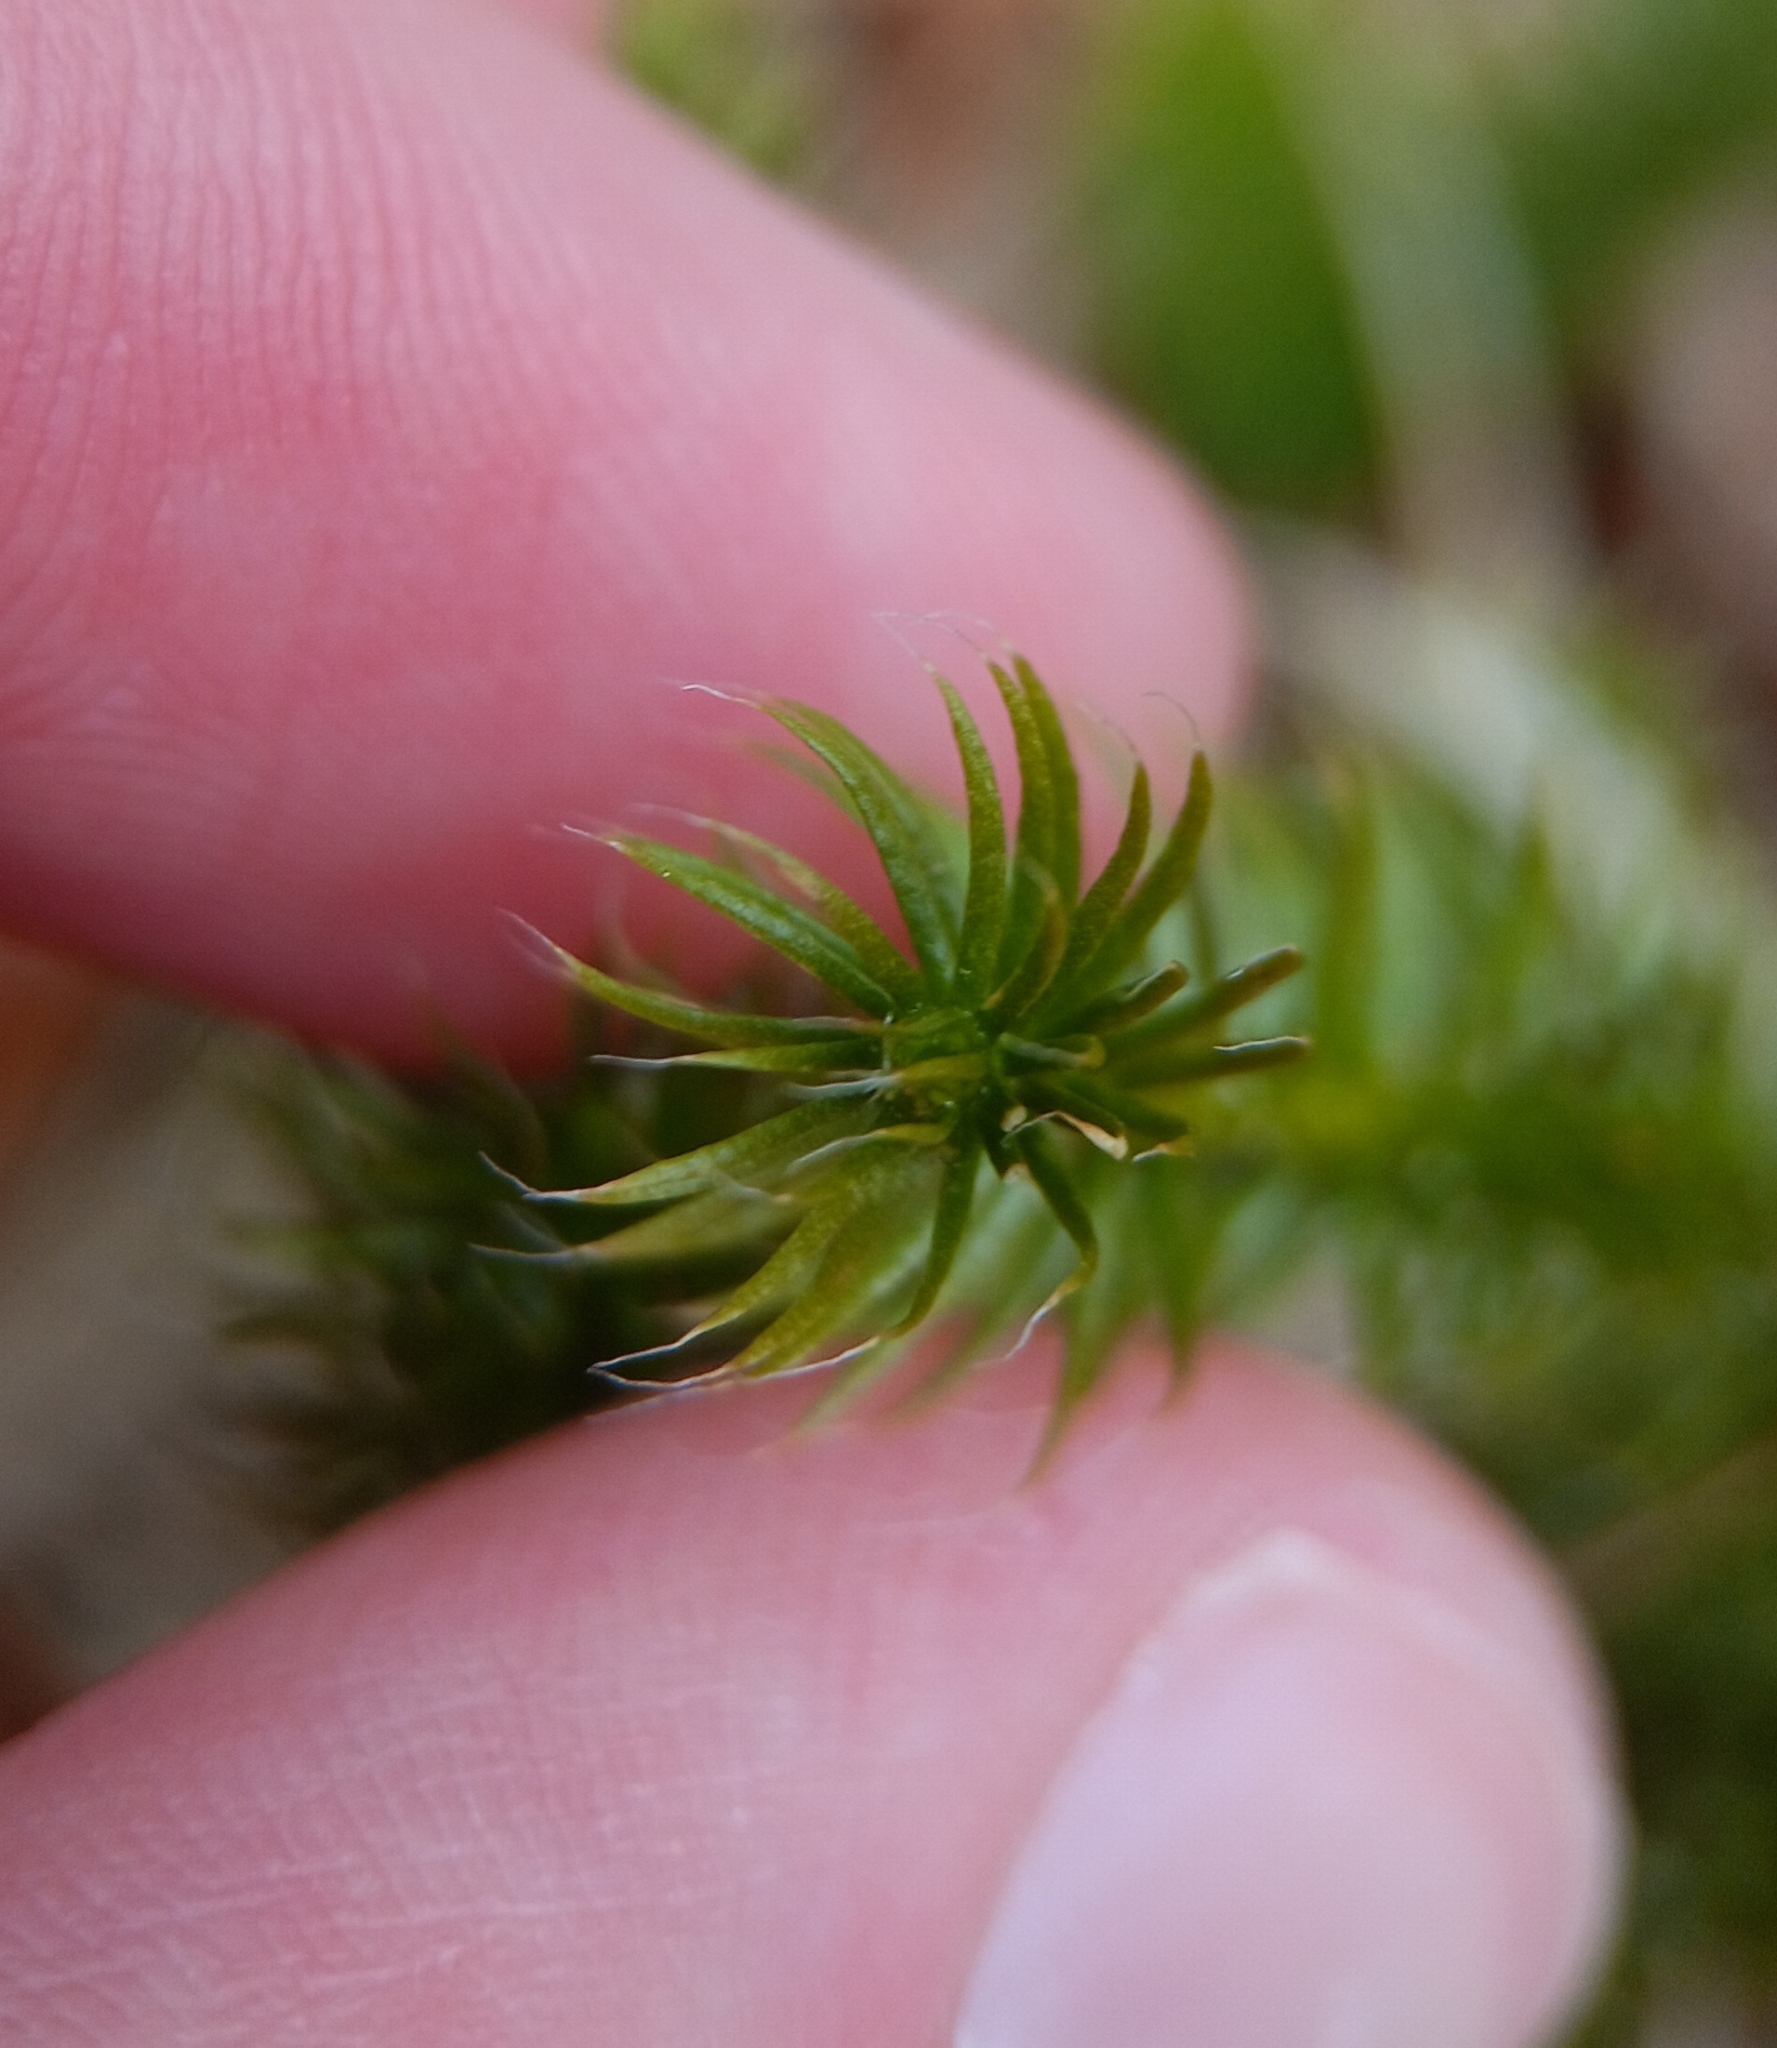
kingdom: Plantae
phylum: Tracheophyta
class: Lycopodiopsida
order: Lycopodiales
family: Lycopodiaceae
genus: Lycopodium
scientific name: Lycopodium clavatum
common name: Stag's-horn clubmoss
